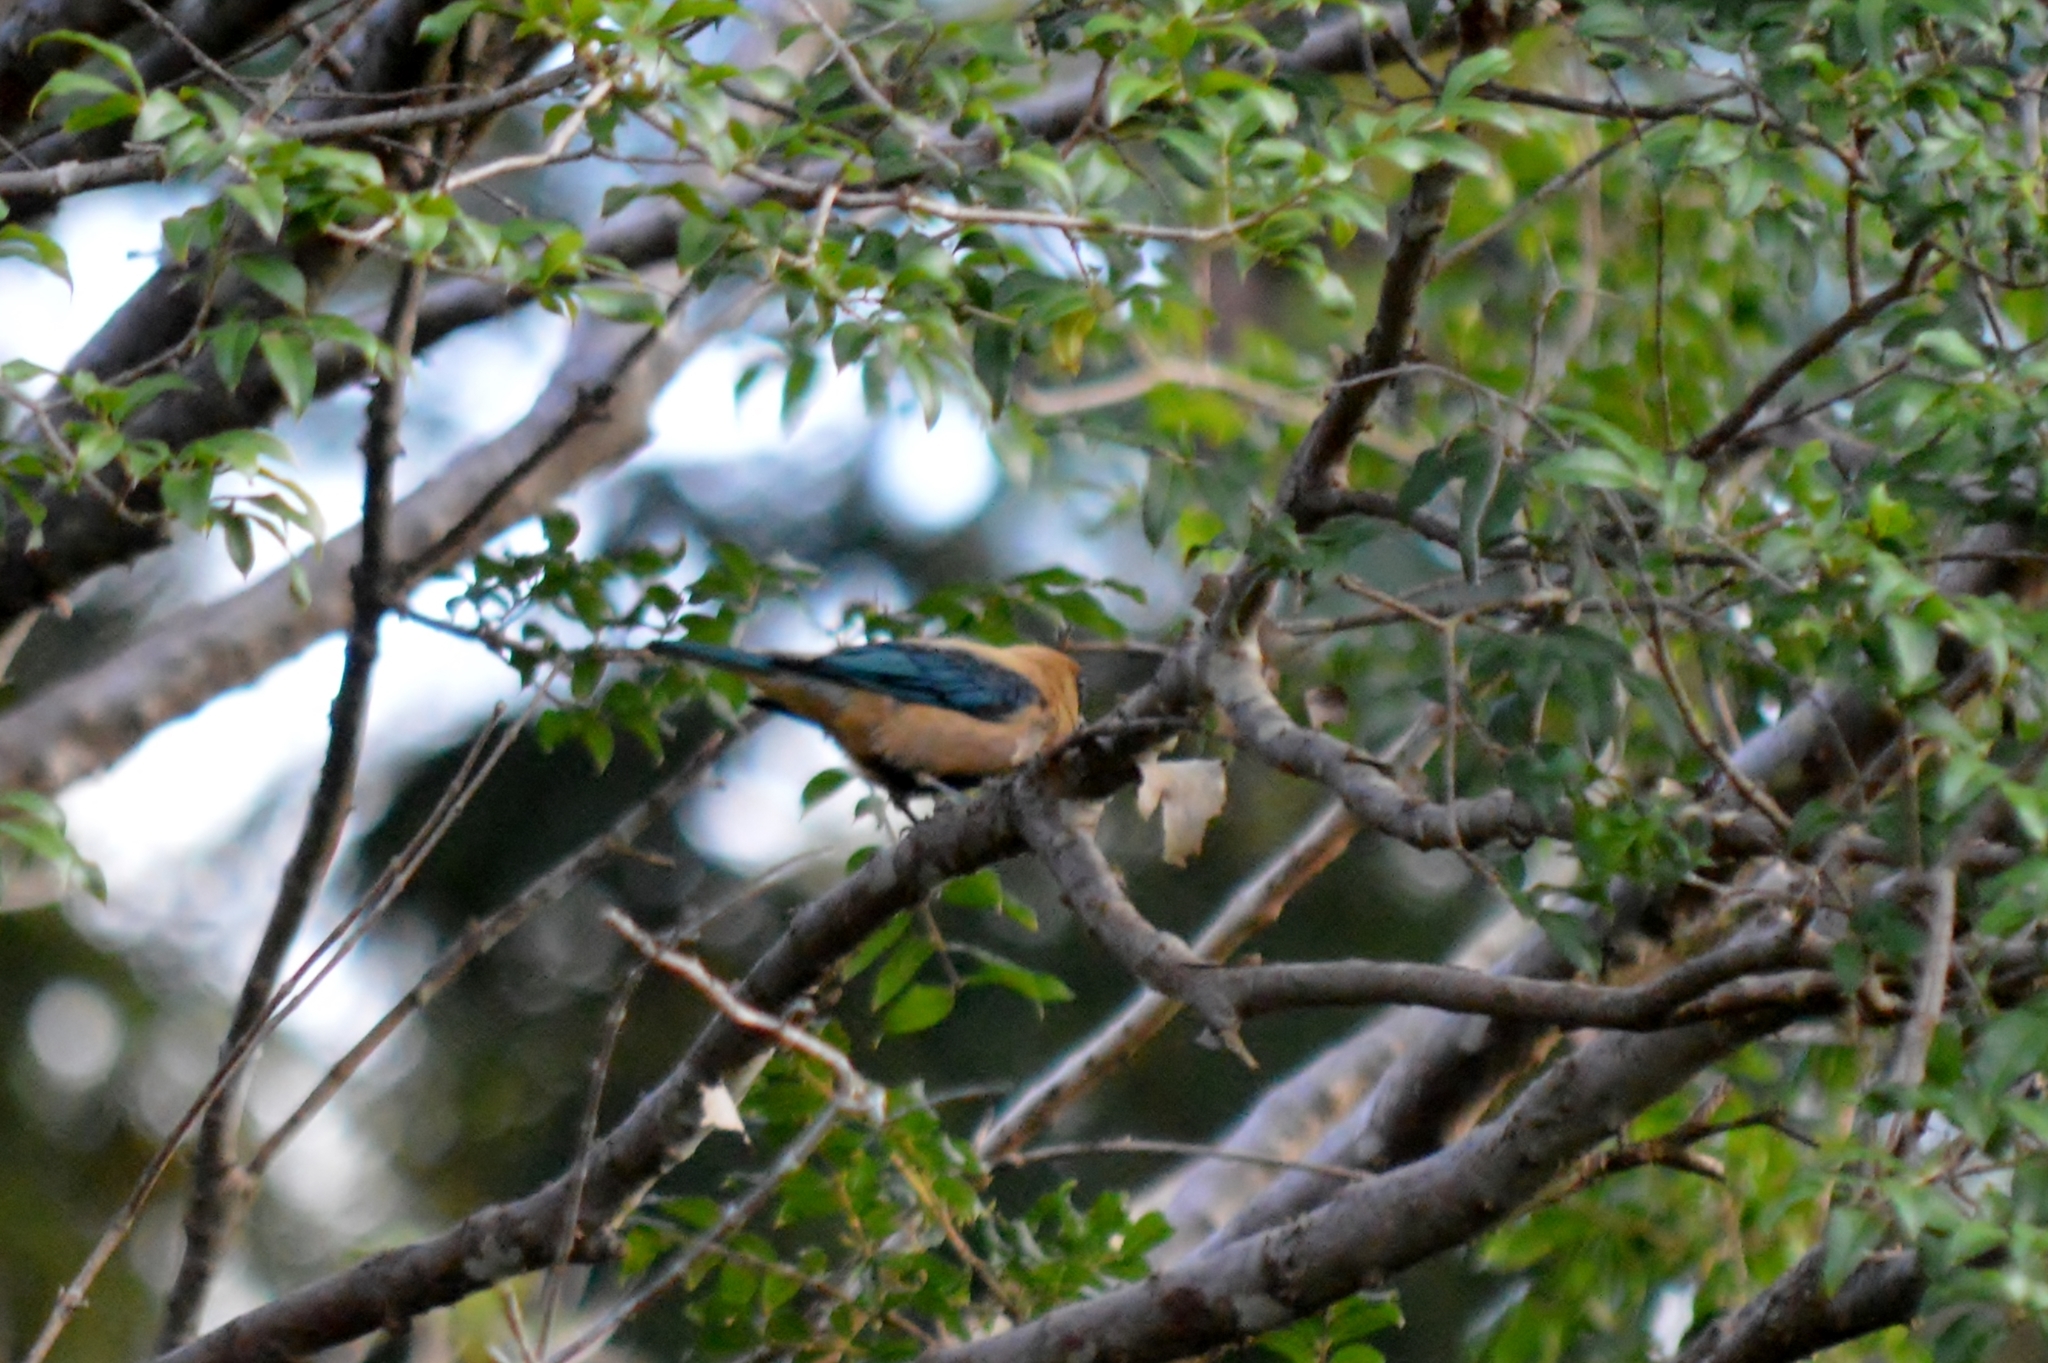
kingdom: Animalia
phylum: Chordata
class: Aves
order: Passeriformes
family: Thraupidae
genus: Stilpnia
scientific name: Stilpnia cayana
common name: Burnished-buff tanager
